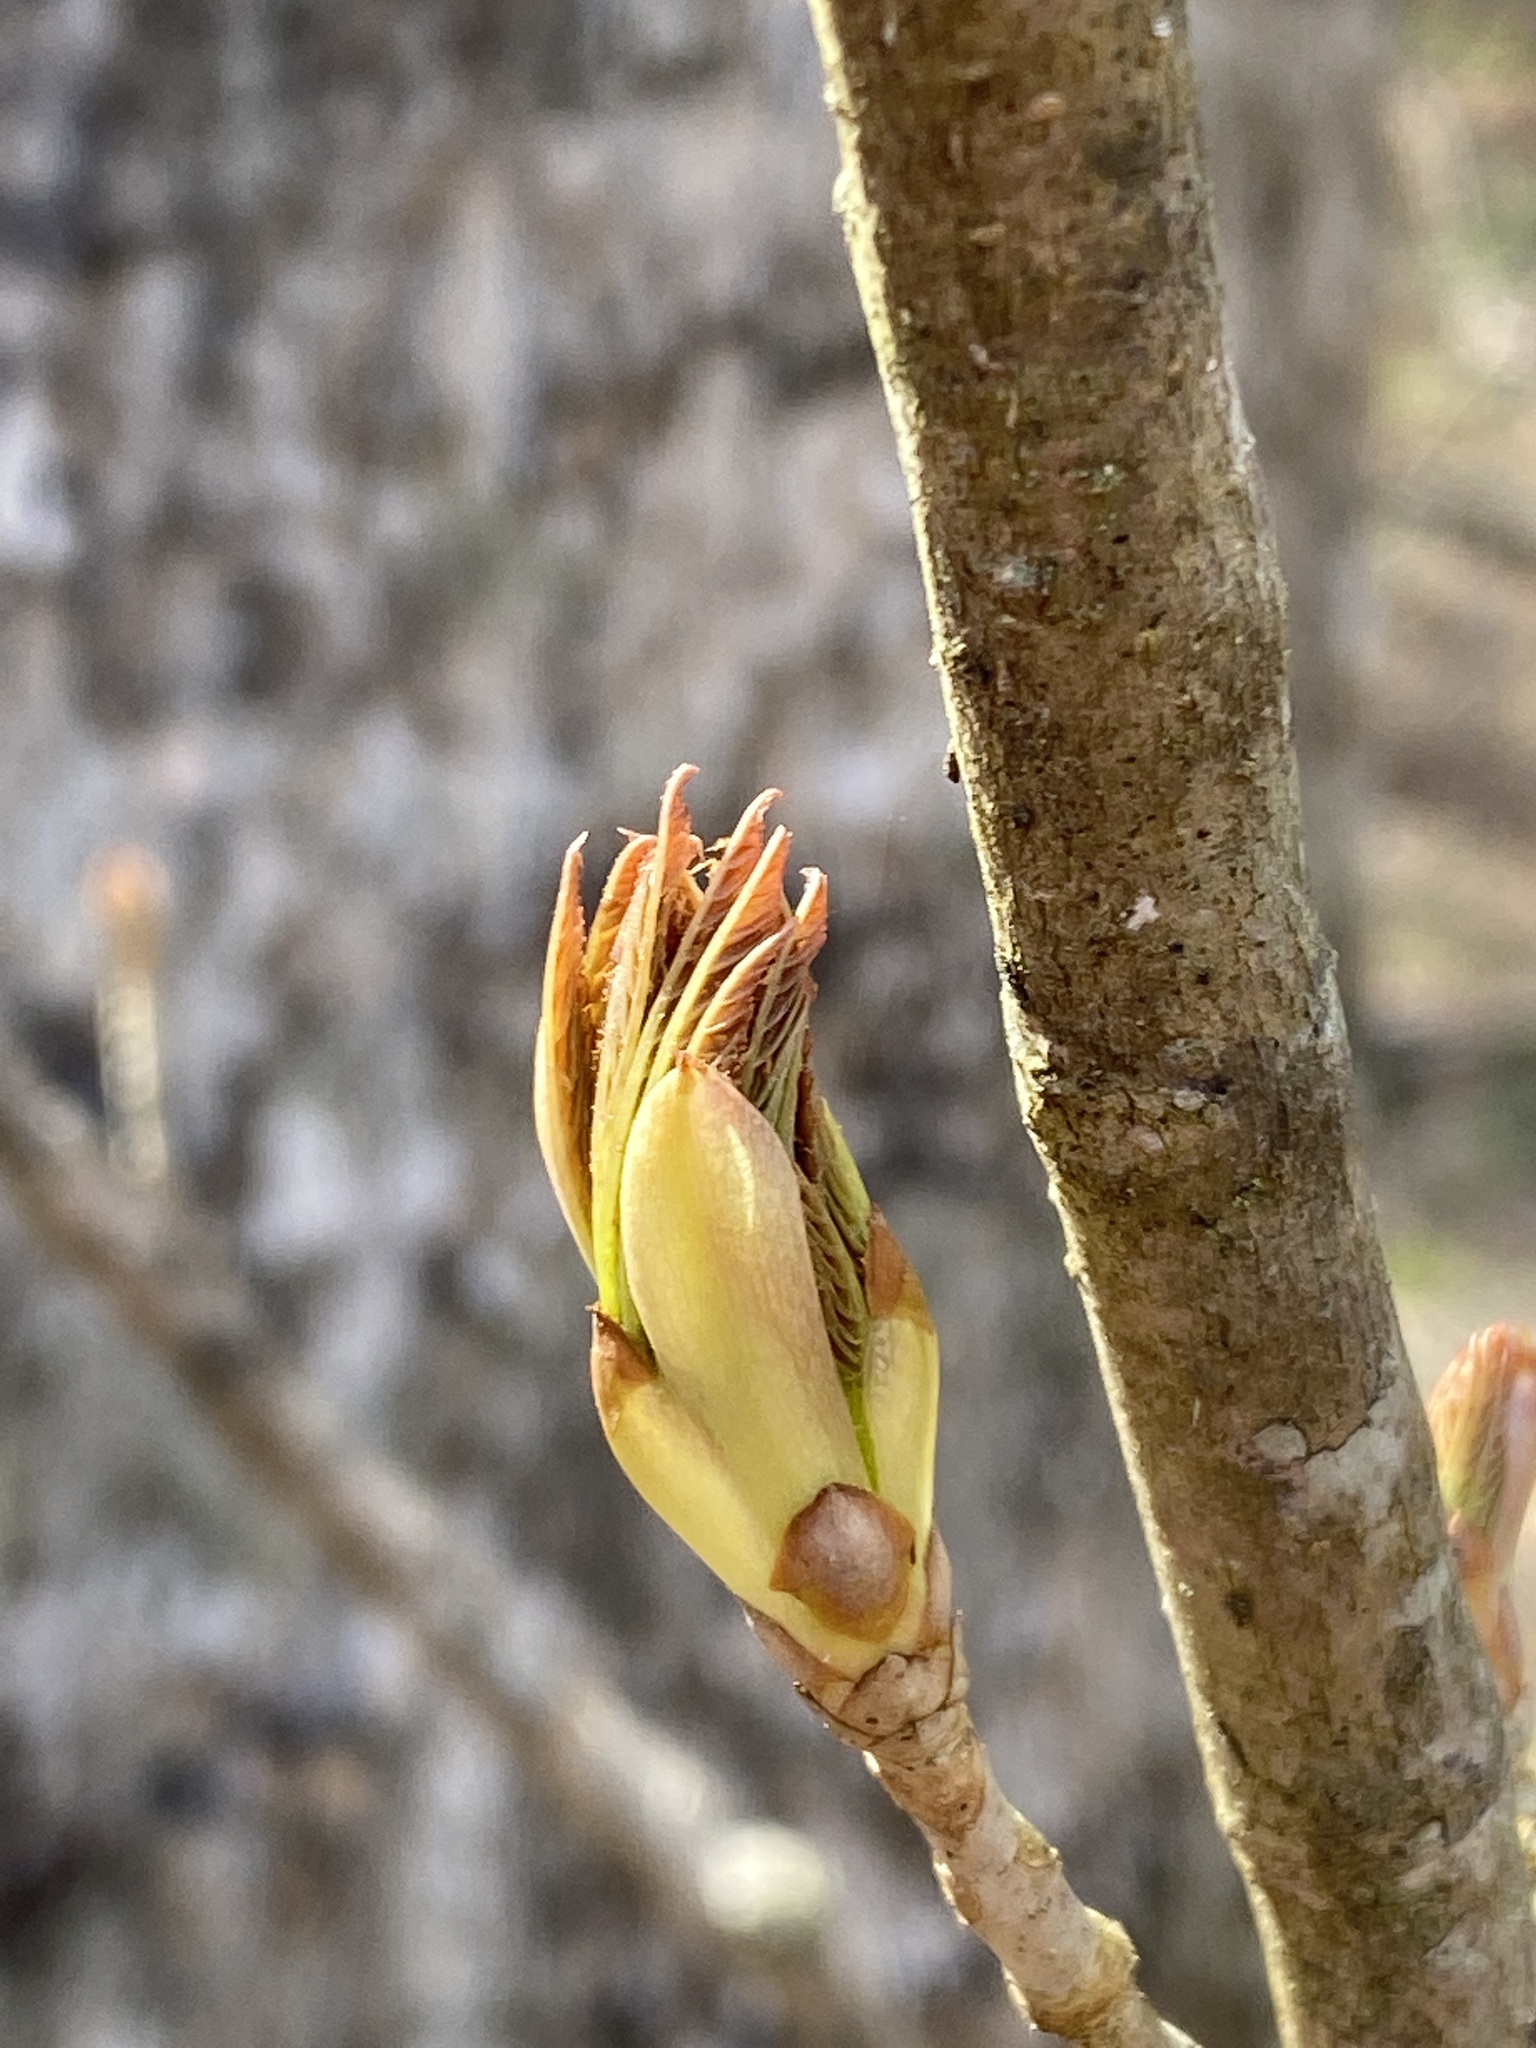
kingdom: Plantae
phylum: Tracheophyta
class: Magnoliopsida
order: Sapindales
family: Sapindaceae
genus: Aesculus
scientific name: Aesculus sylvatica
